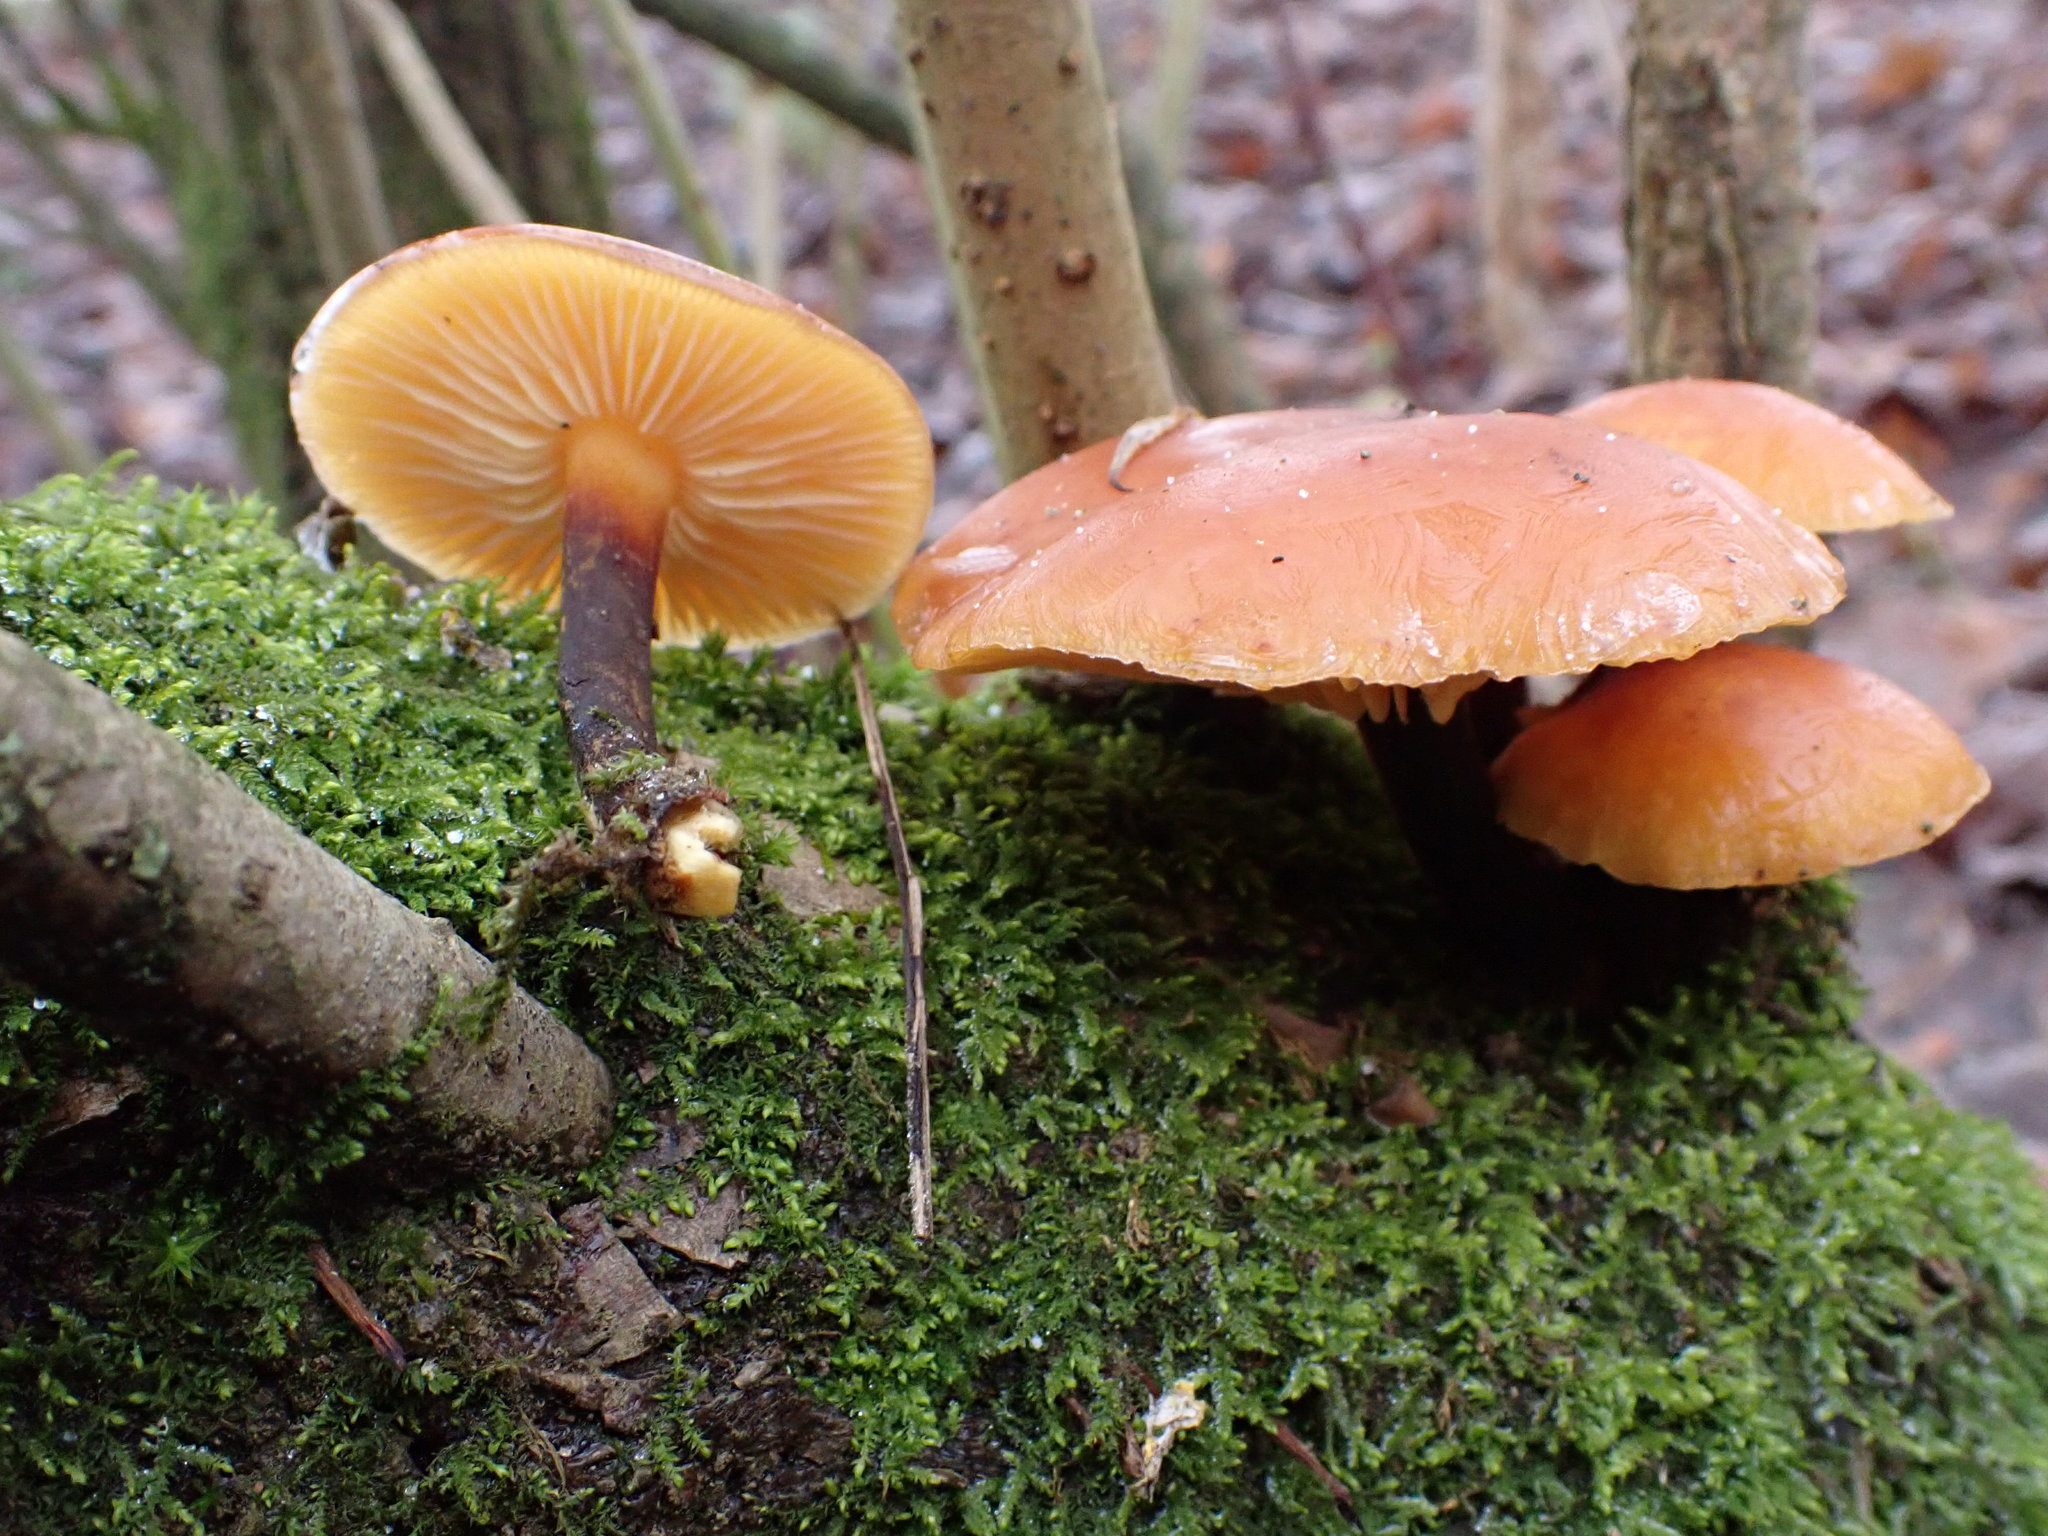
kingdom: Fungi
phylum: Basidiomycota
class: Agaricomycetes
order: Agaricales
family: Physalacriaceae
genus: Flammulina
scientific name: Flammulina
